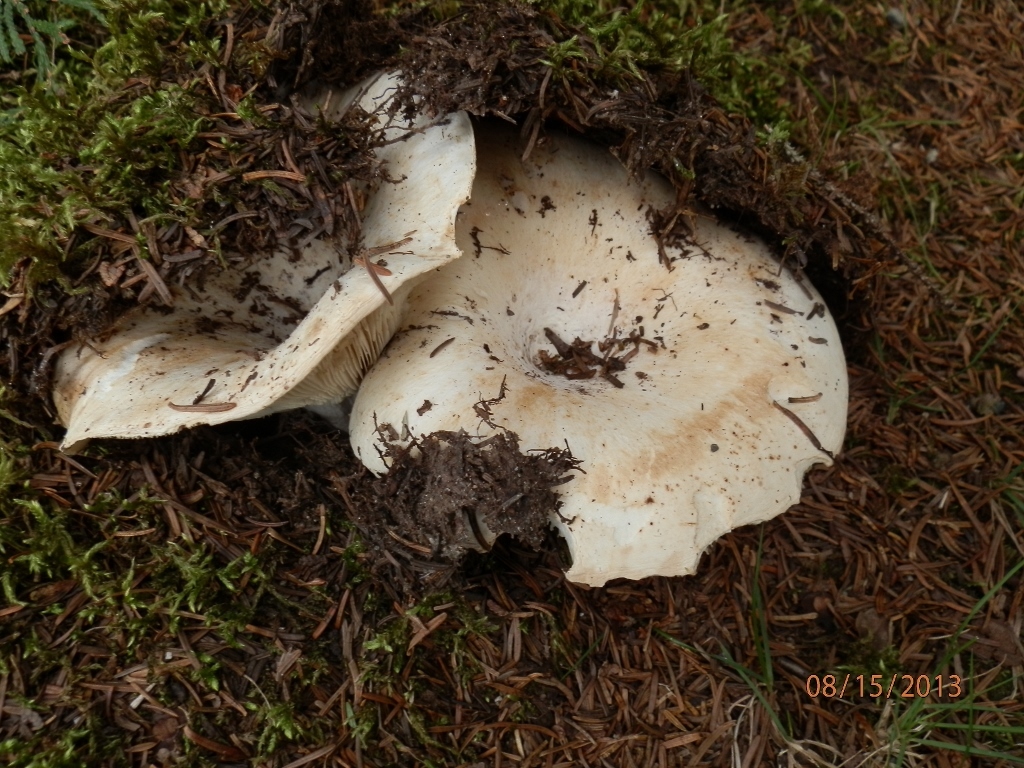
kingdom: Fungi
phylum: Basidiomycota
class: Agaricomycetes
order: Russulales
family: Russulaceae
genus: Russula
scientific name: Russula brevipes
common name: Short-stemmed russula
